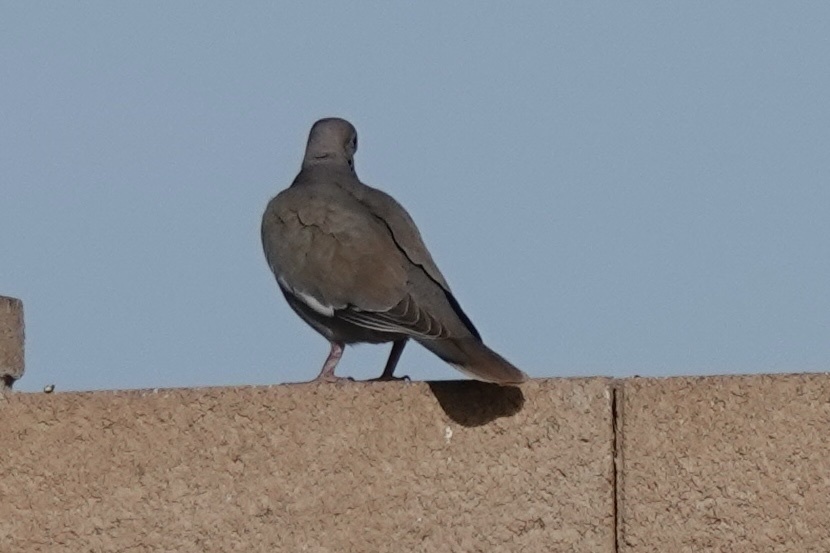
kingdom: Animalia
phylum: Chordata
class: Aves
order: Columbiformes
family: Columbidae
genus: Zenaida
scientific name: Zenaida asiatica
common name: White-winged dove
